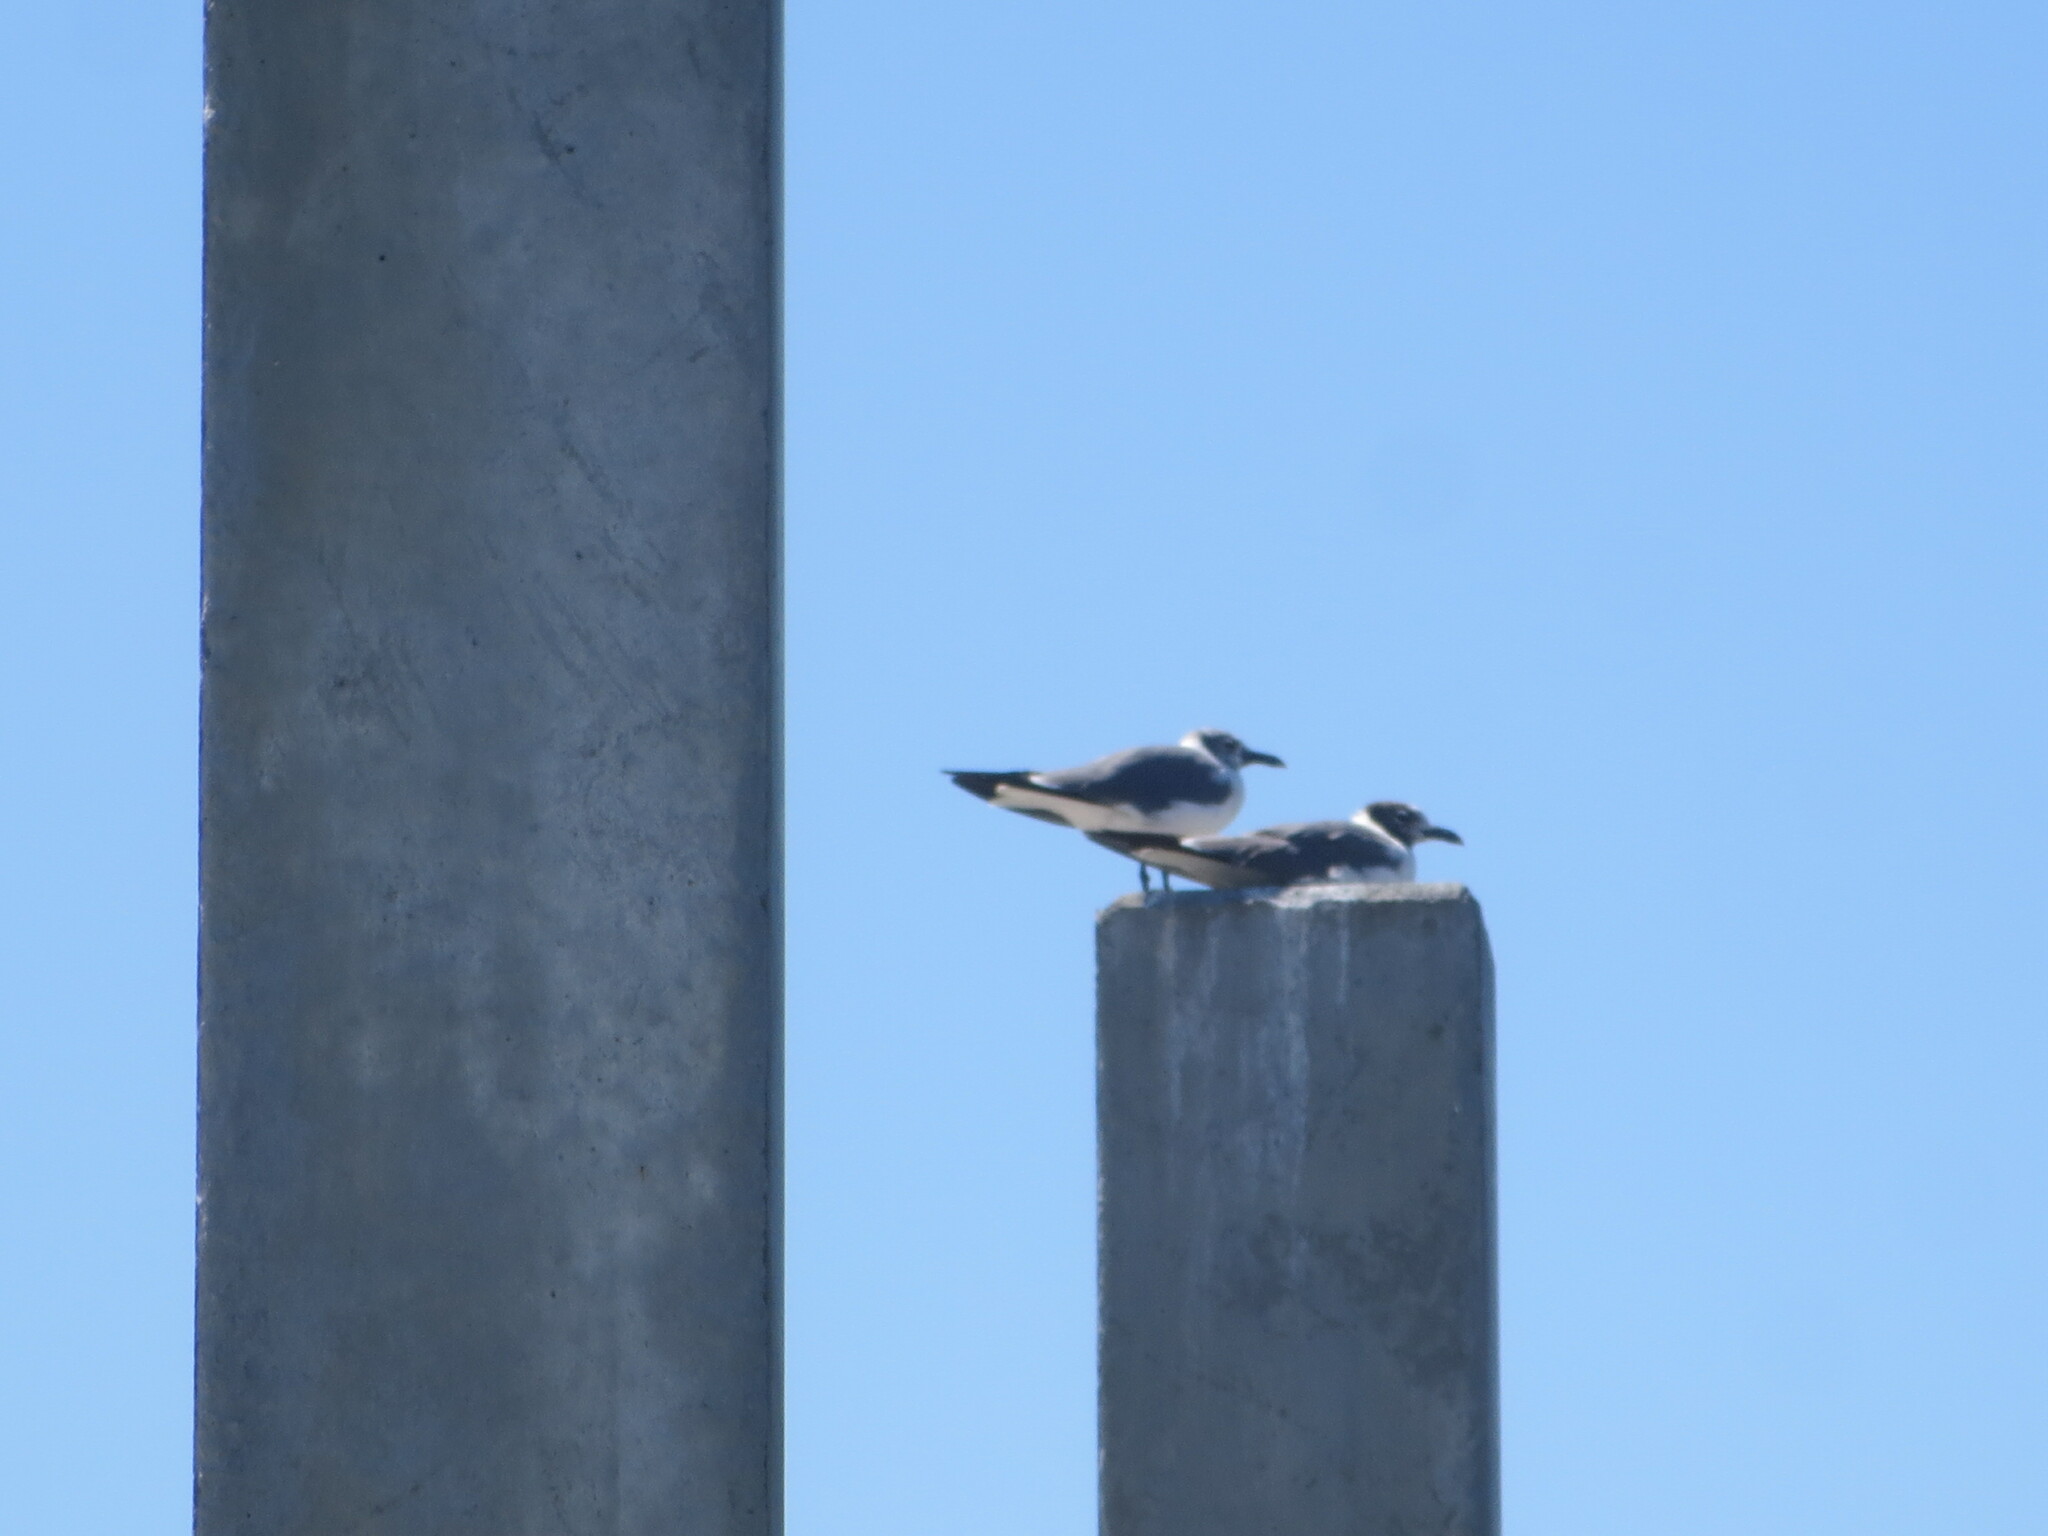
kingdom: Animalia
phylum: Chordata
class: Aves
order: Charadriiformes
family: Laridae
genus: Leucophaeus
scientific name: Leucophaeus atricilla
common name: Laughing gull
